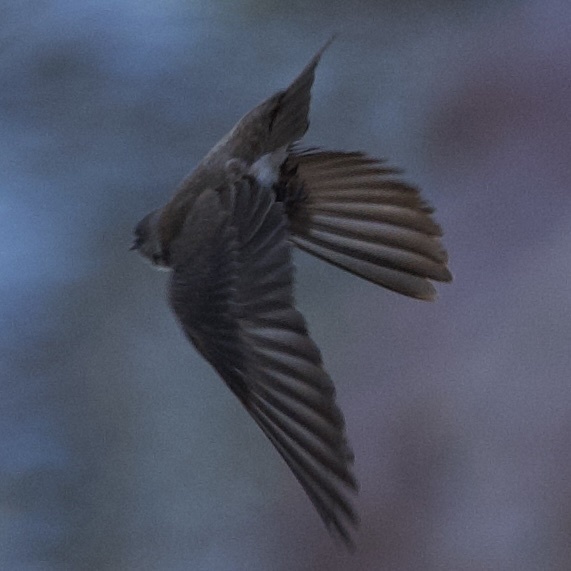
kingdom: Animalia
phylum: Chordata
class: Aves
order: Passeriformes
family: Hirundinidae
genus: Stelgidopteryx
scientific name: Stelgidopteryx serripennis
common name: Northern rough-winged swallow
